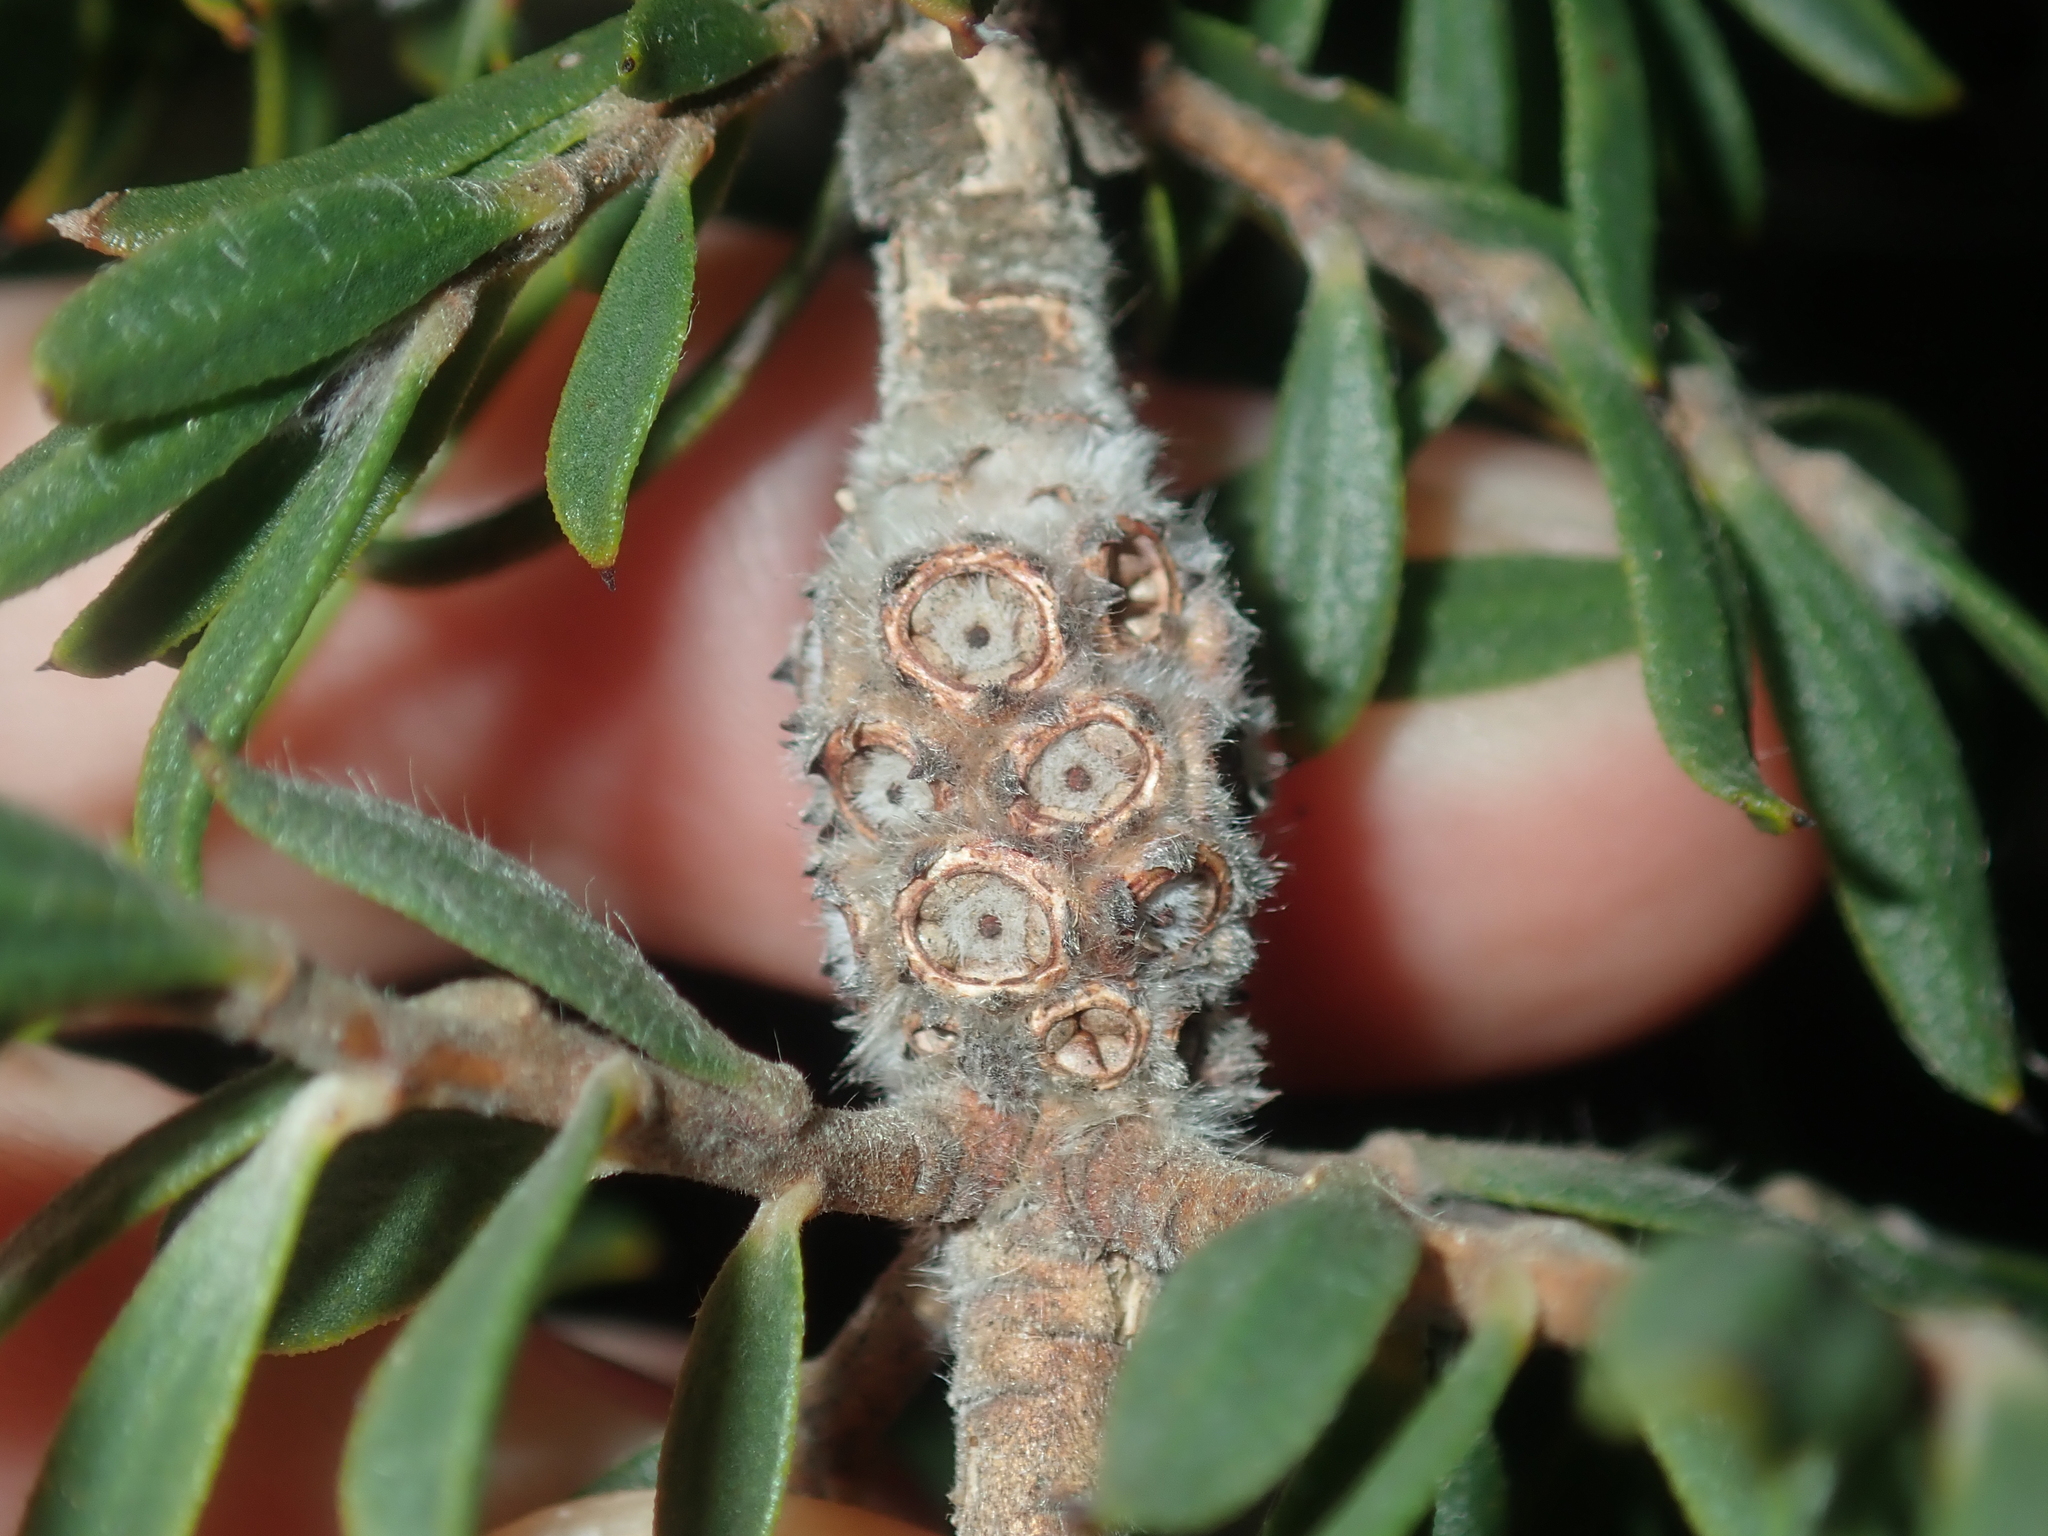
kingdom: Plantae
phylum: Tracheophyta
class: Magnoliopsida
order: Myrtales
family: Myrtaceae
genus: Melaleuca
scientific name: Melaleuca cowleyae
